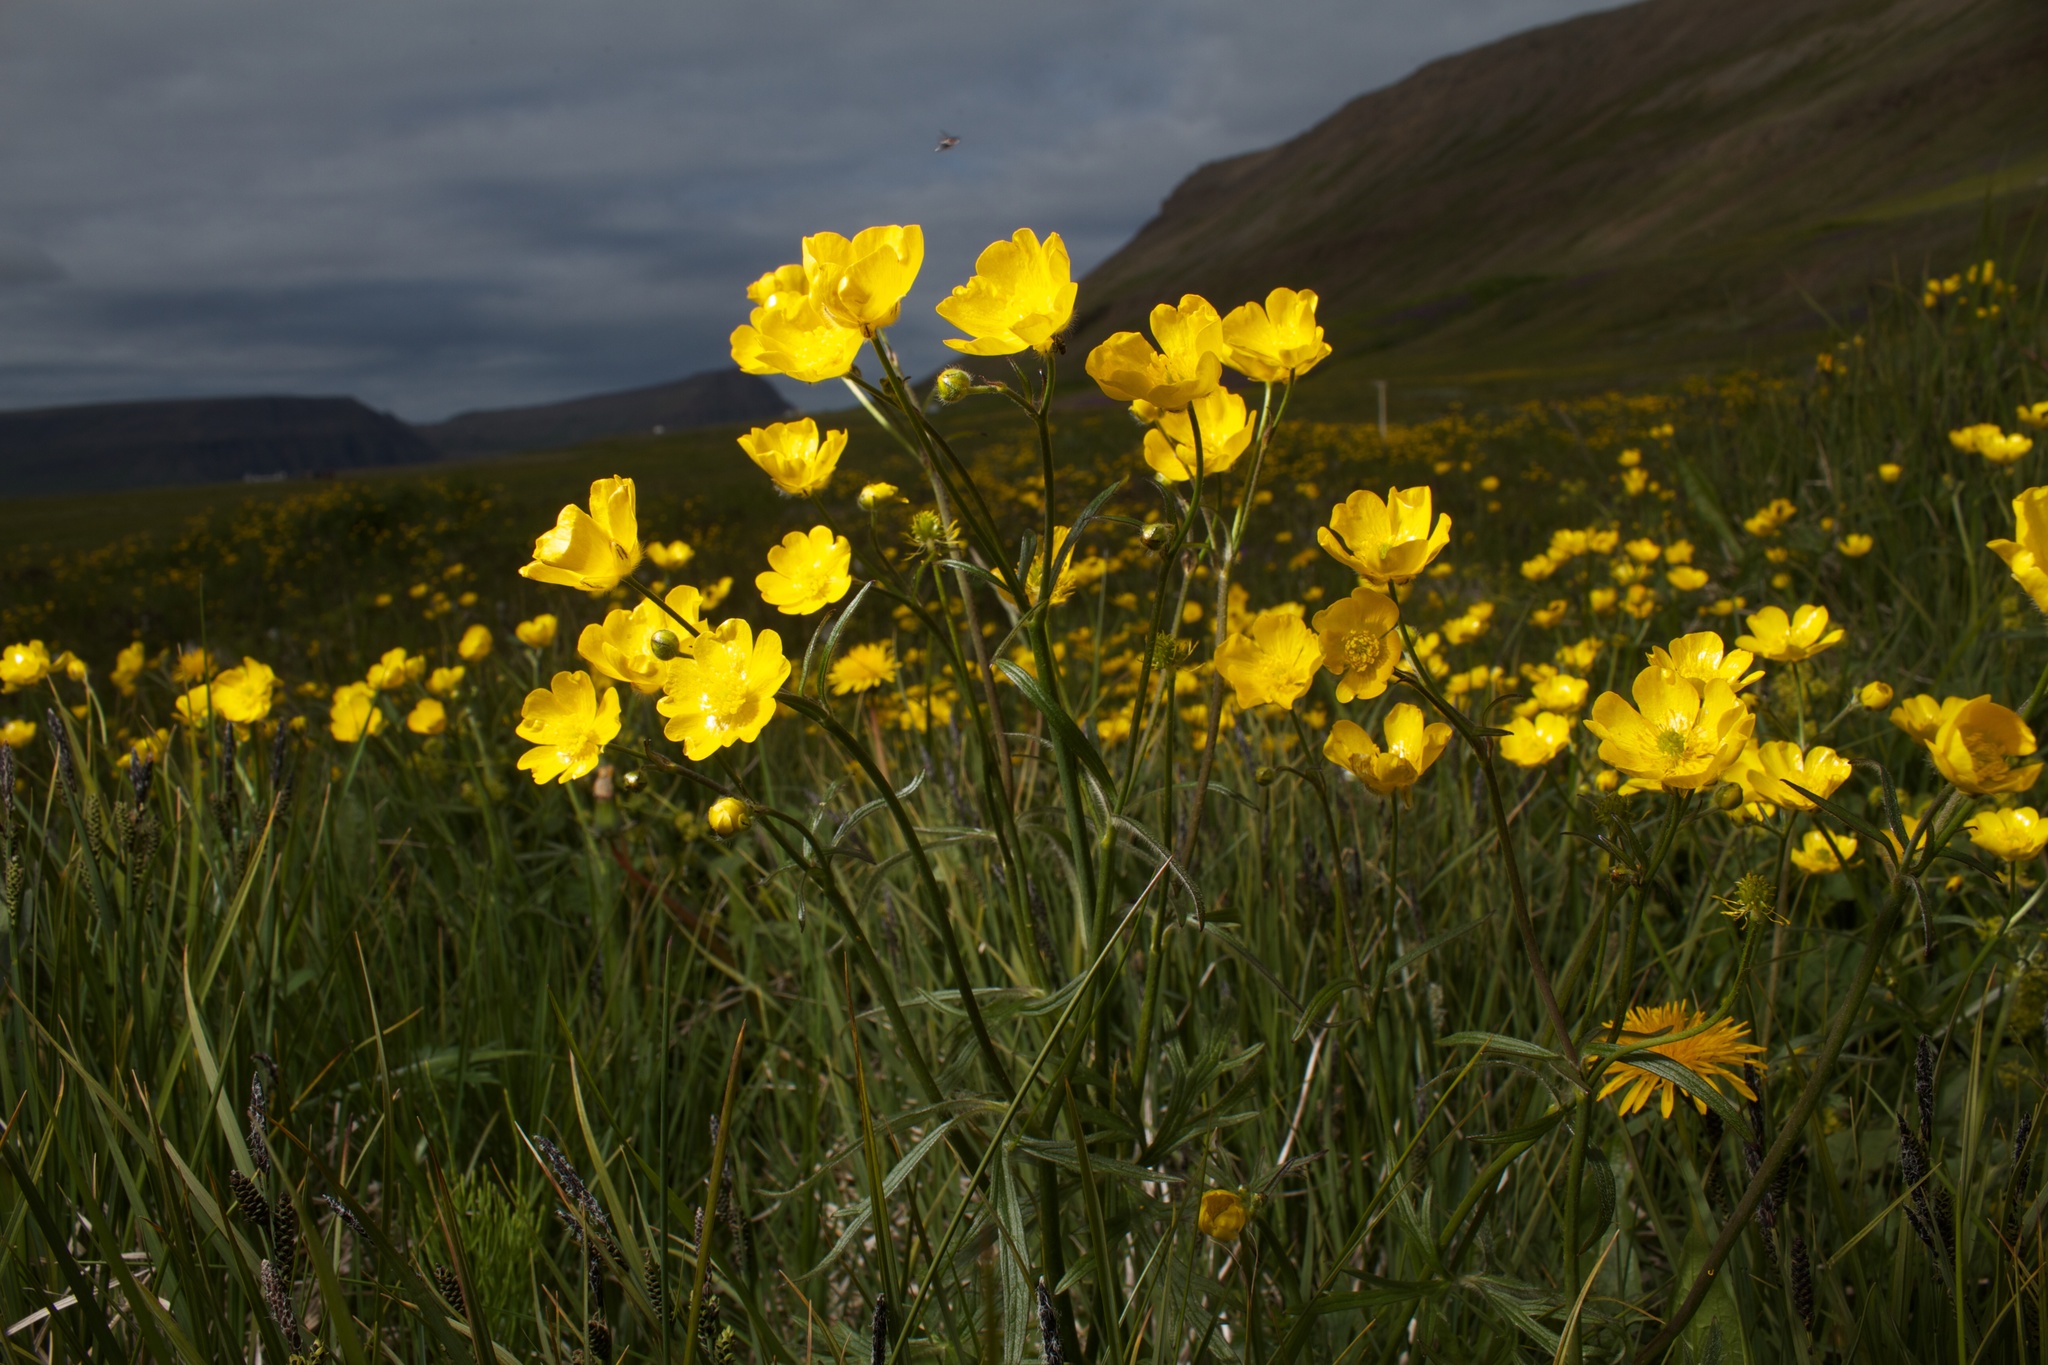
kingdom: Plantae
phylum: Tracheophyta
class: Magnoliopsida
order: Ranunculales
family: Ranunculaceae
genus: Ranunculus
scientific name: Ranunculus acris
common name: Meadow buttercup
